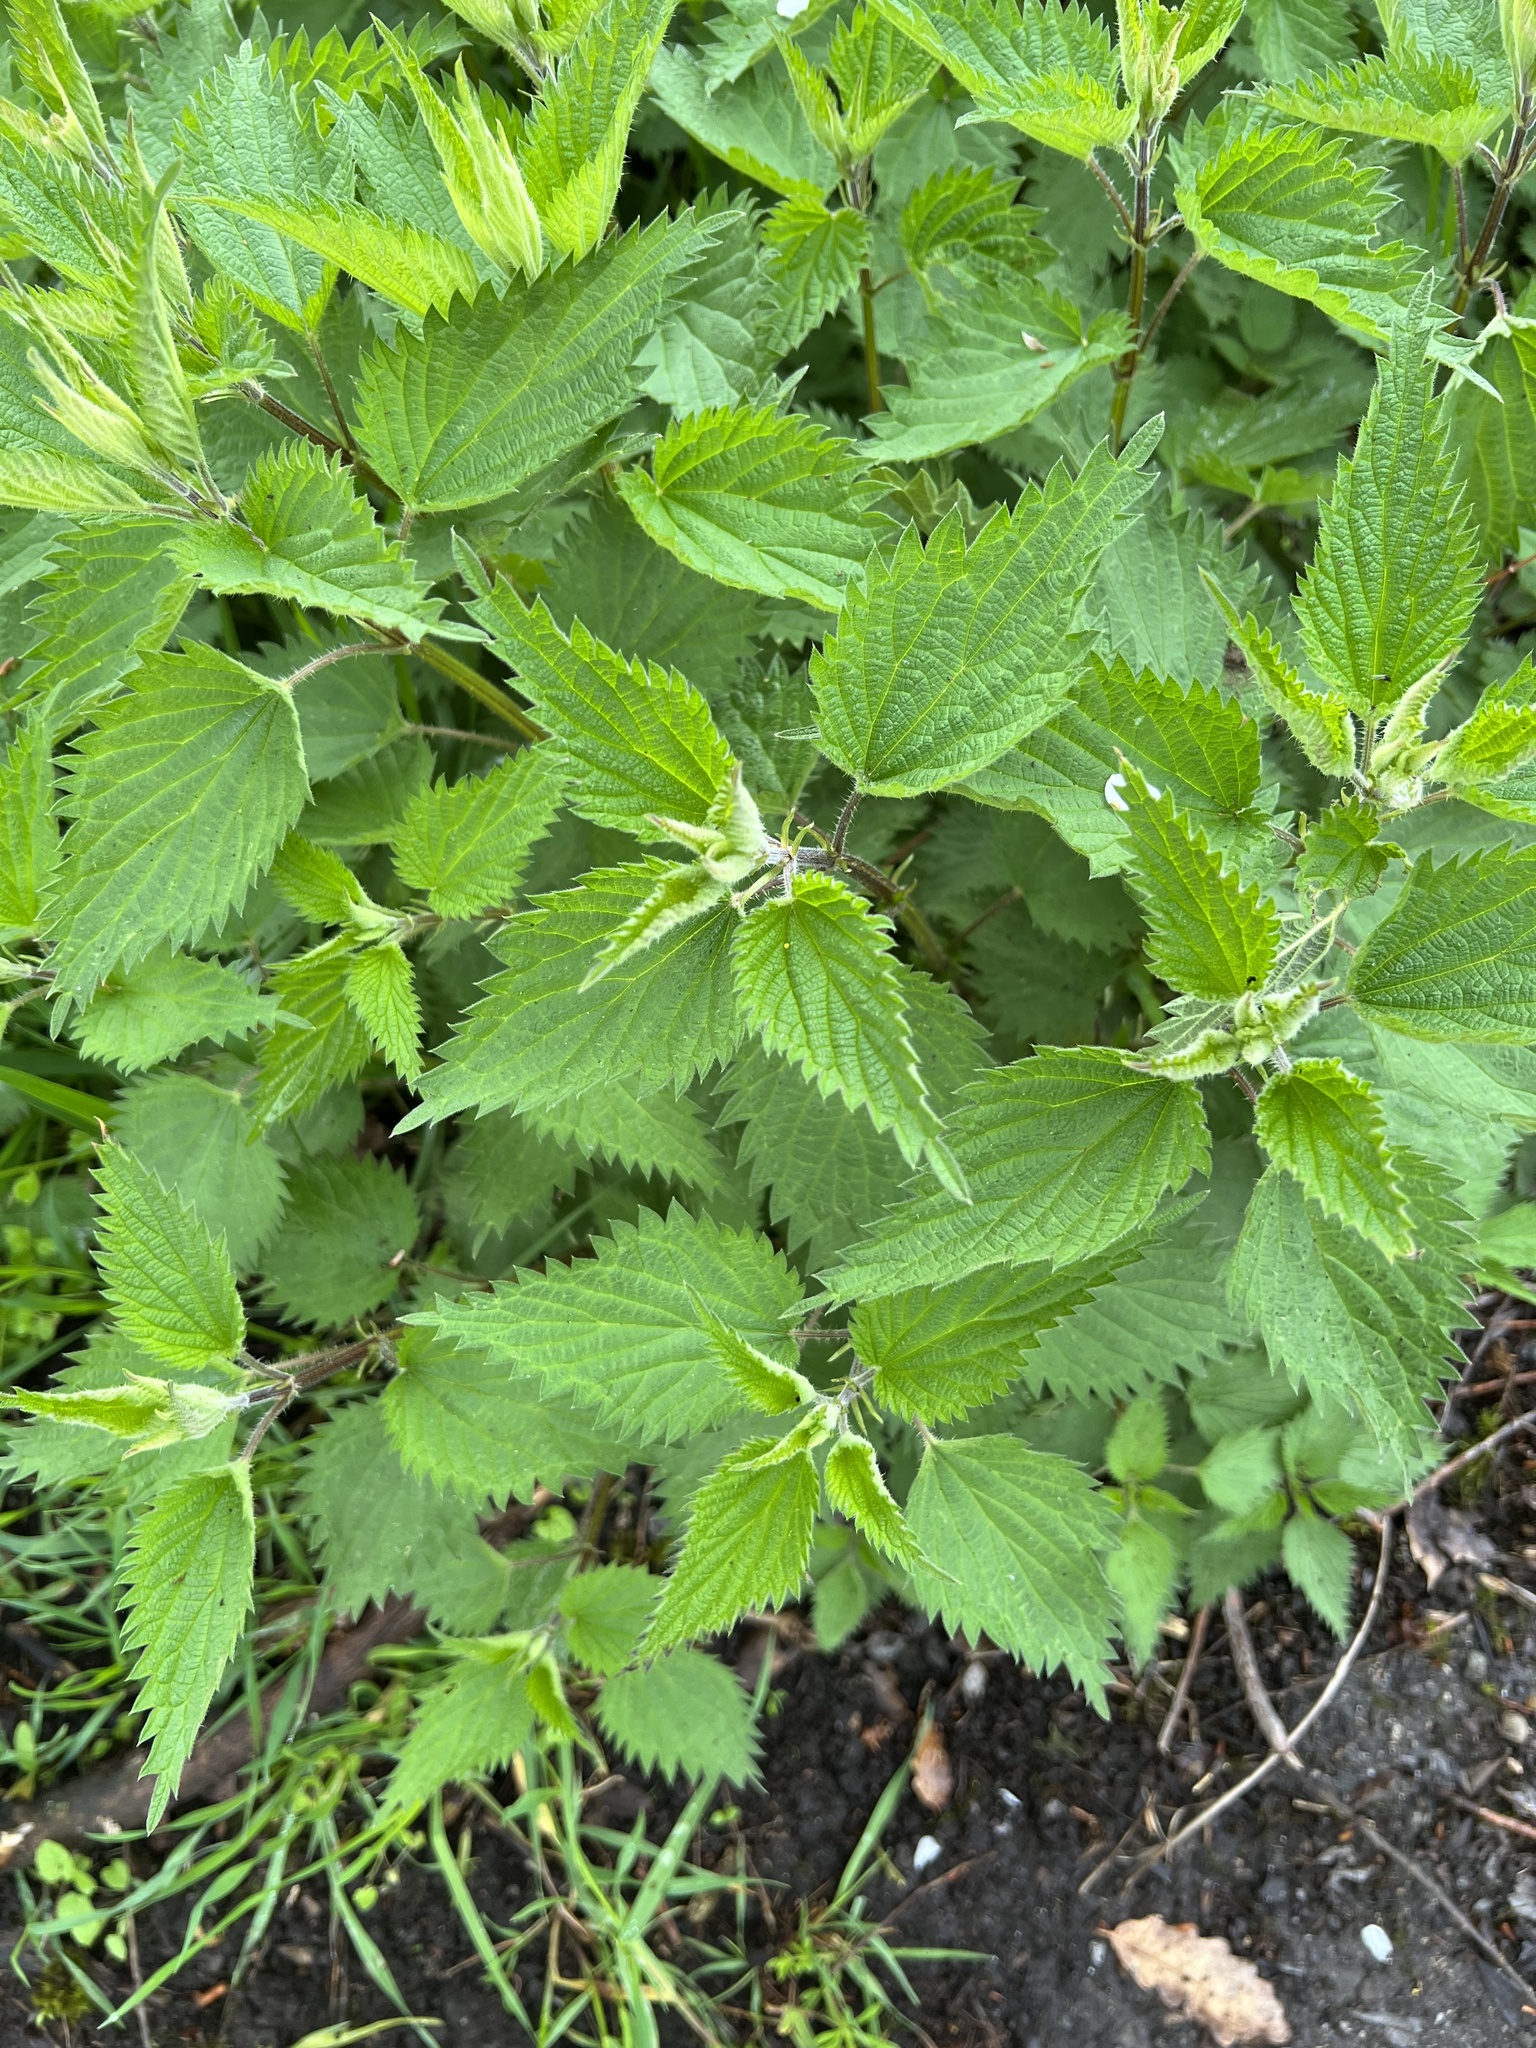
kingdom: Plantae
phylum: Tracheophyta
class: Magnoliopsida
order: Rosales
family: Urticaceae
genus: Urtica
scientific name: Urtica dioica
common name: Common nettle
